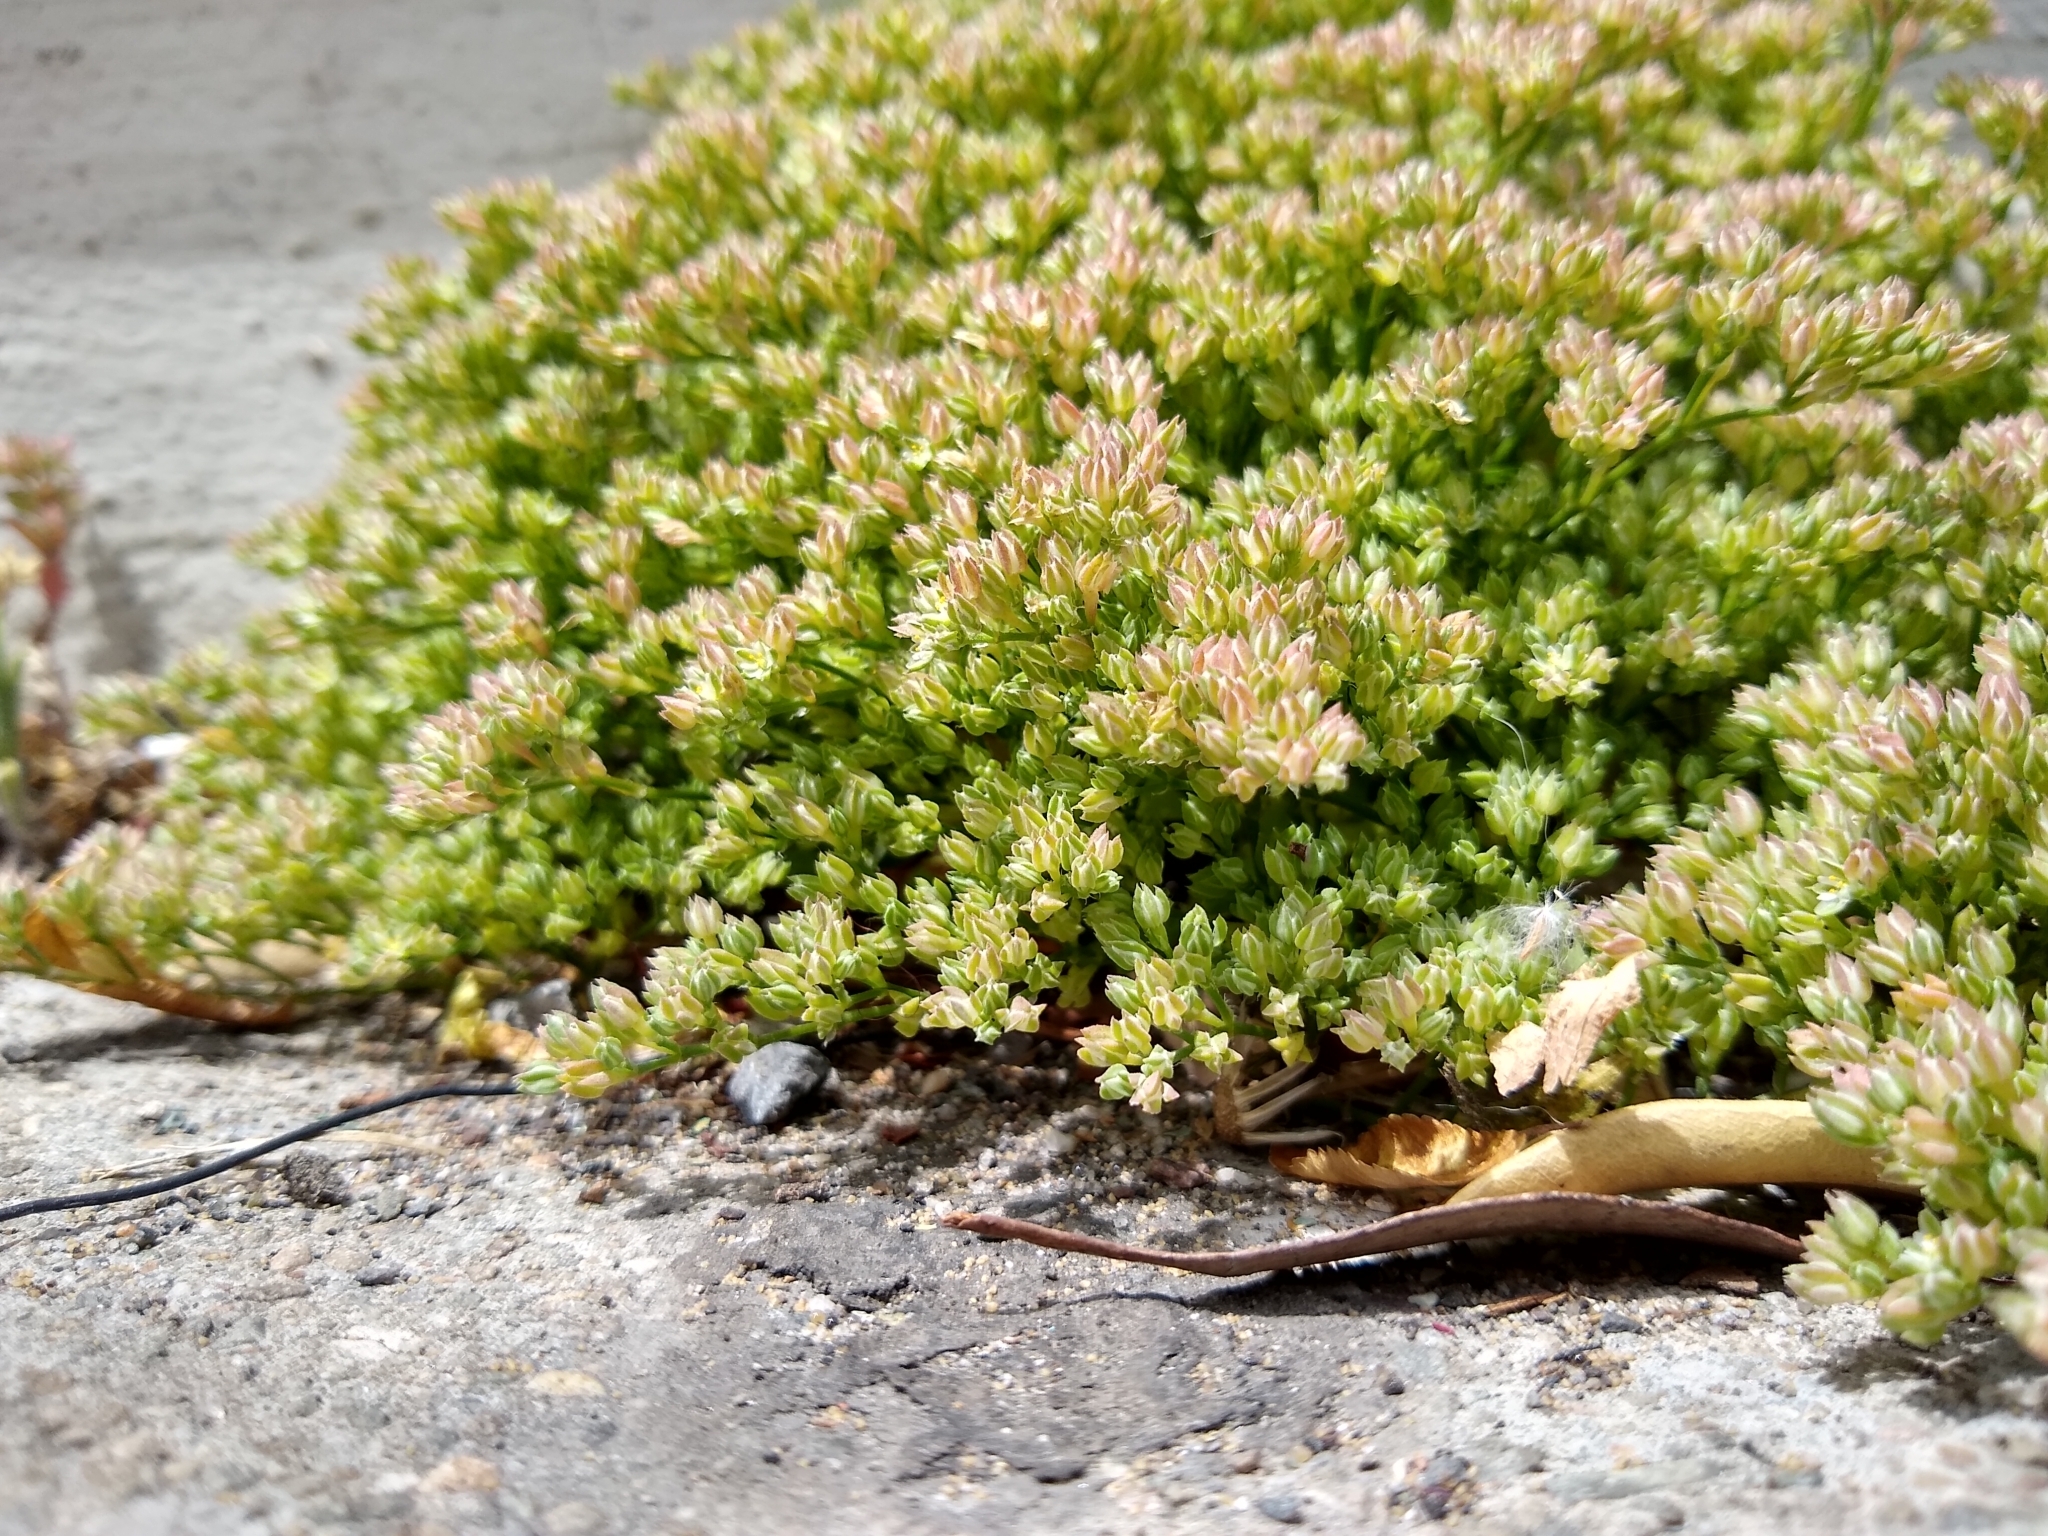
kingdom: Plantae
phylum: Tracheophyta
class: Magnoliopsida
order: Caryophyllales
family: Caryophyllaceae
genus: Polycarpon
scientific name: Polycarpon tetraphyllum
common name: Four-leaved all-seed
